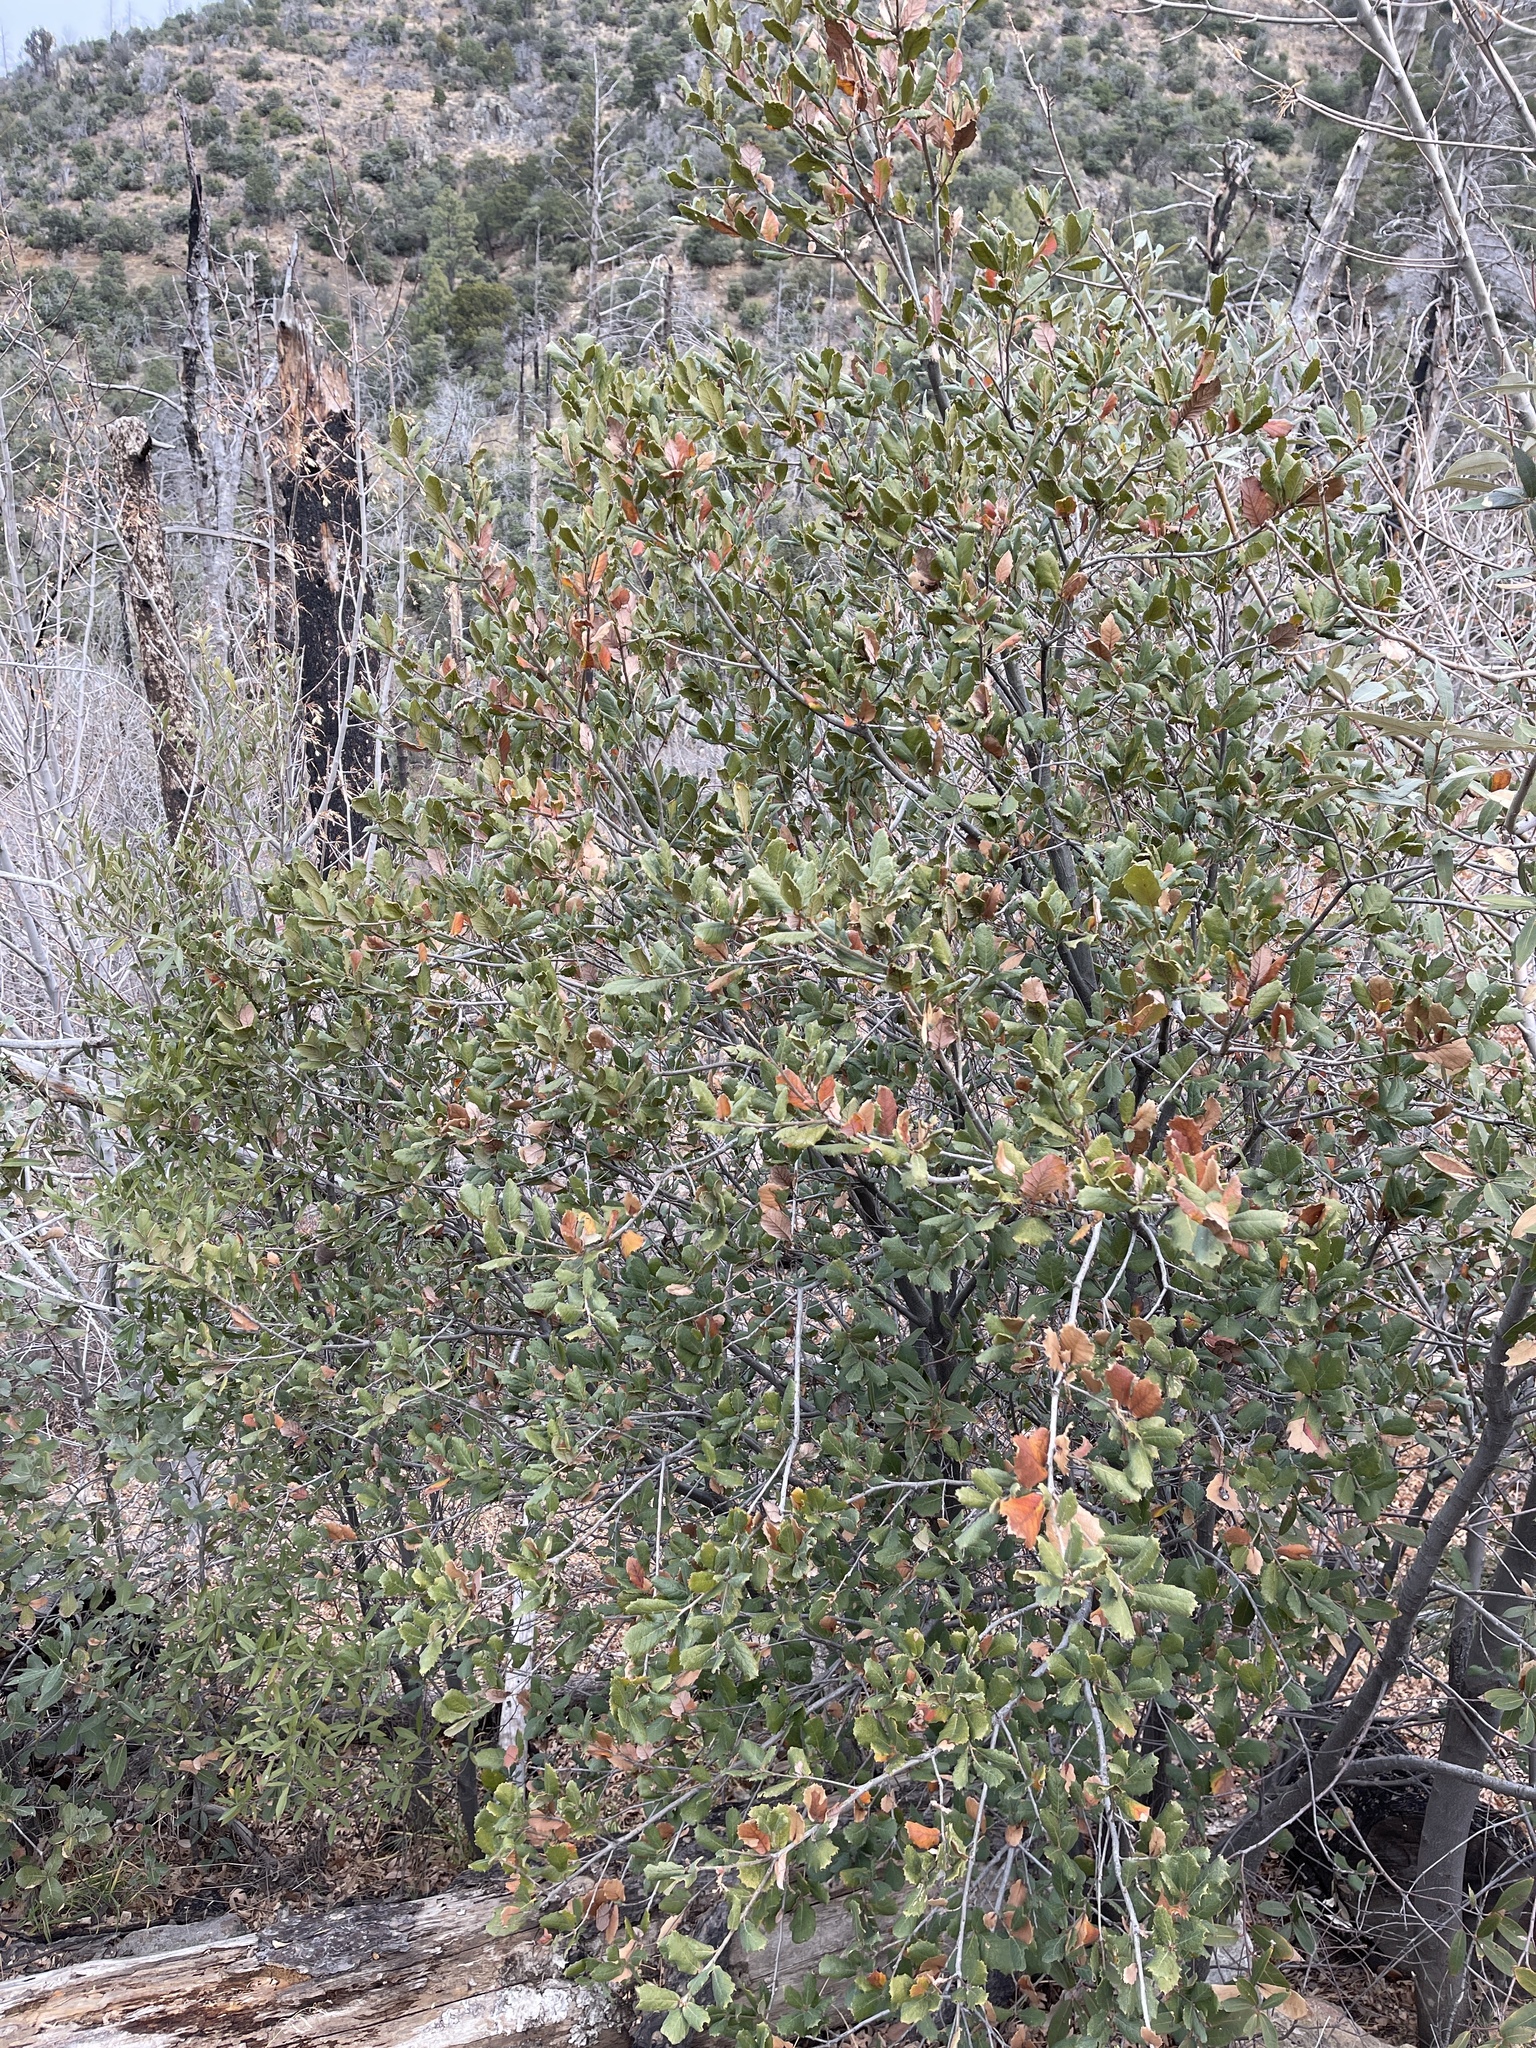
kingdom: Plantae
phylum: Tracheophyta
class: Magnoliopsida
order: Fagales
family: Fagaceae
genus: Quercus
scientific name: Quercus rugosa
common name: Netleaf oak
